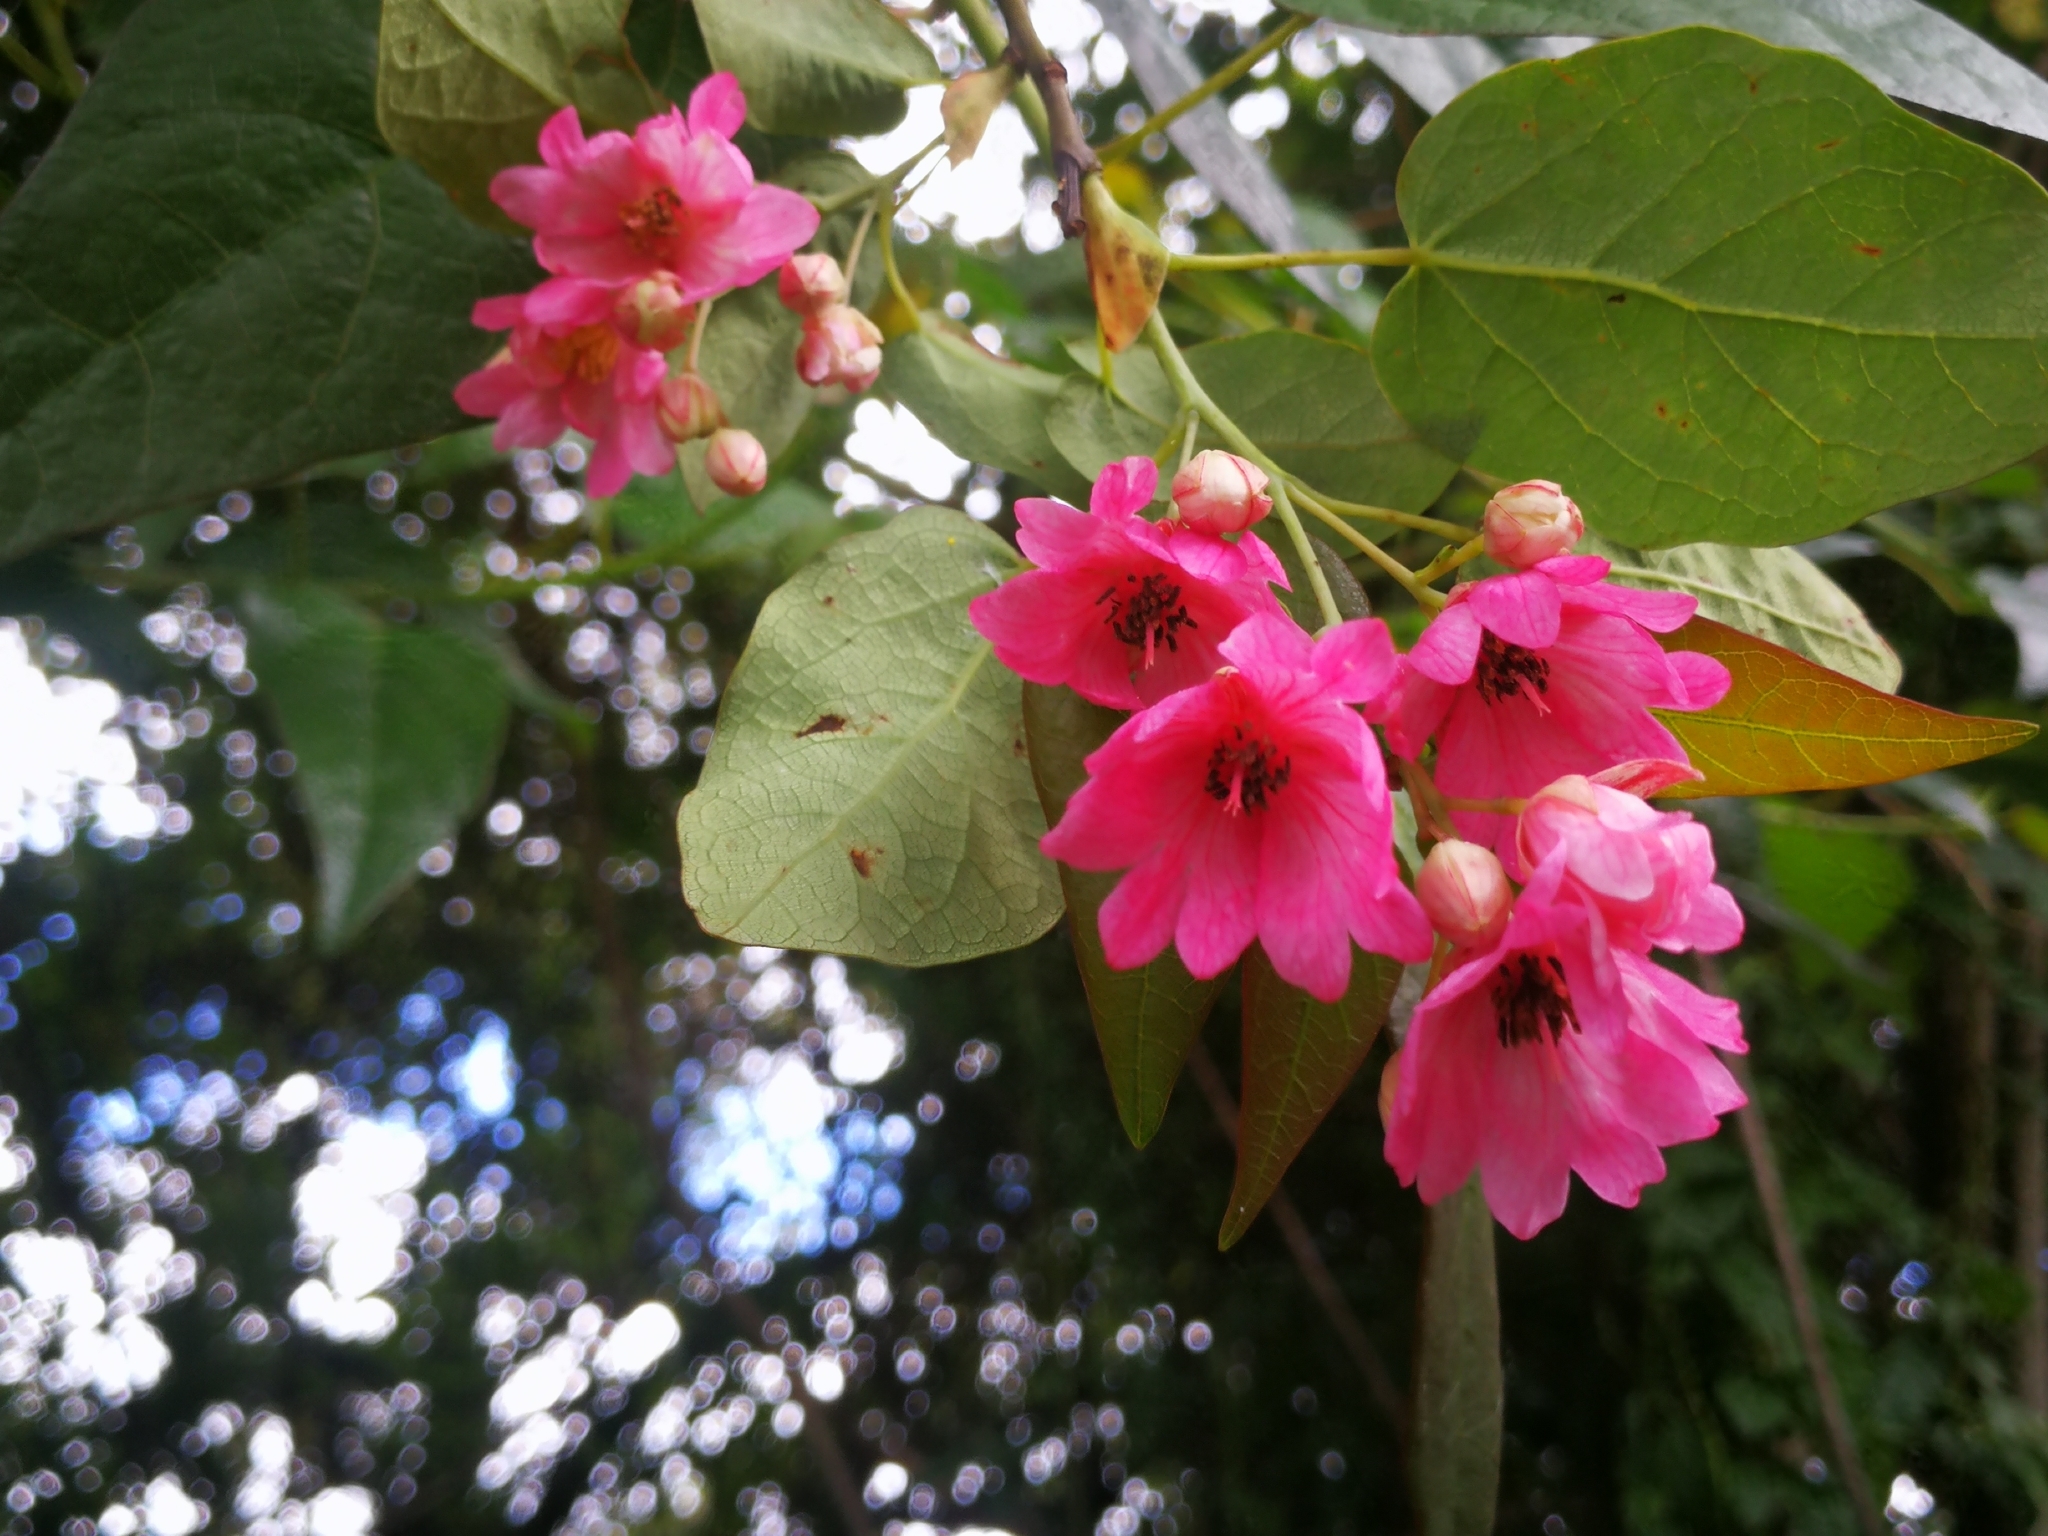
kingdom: Plantae
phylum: Tracheophyta
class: Magnoliopsida
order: Oxalidales
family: Elaeocarpaceae
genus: Vallea
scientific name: Vallea stipularis
